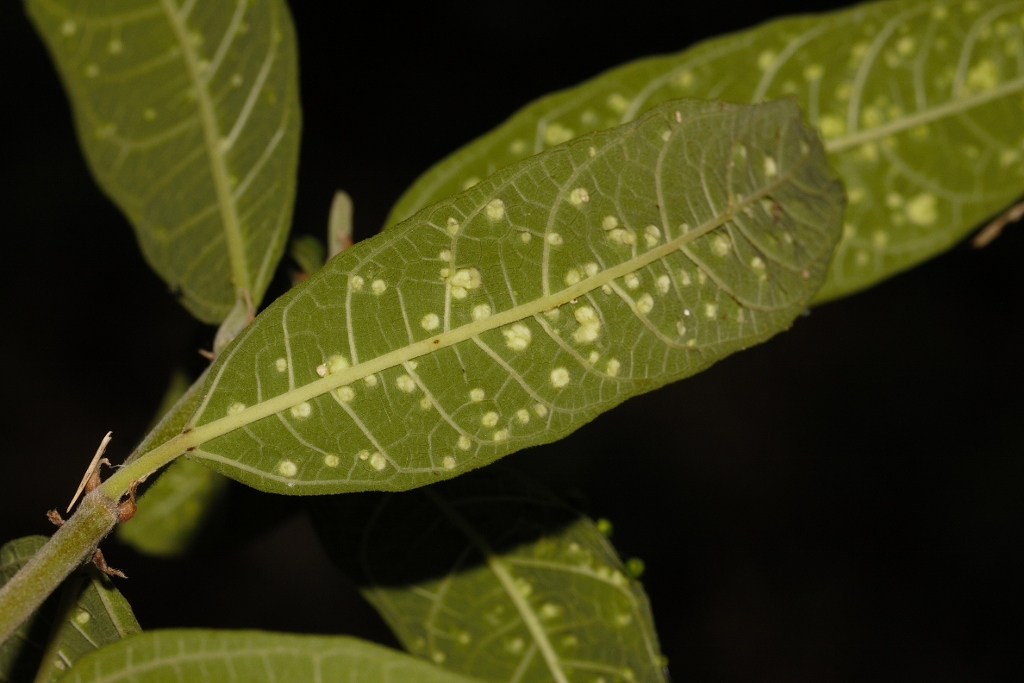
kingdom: Animalia
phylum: Arthropoda
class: Arachnida
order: Trombidiformes
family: Eriophyidae
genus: Neserella
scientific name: Neserella
